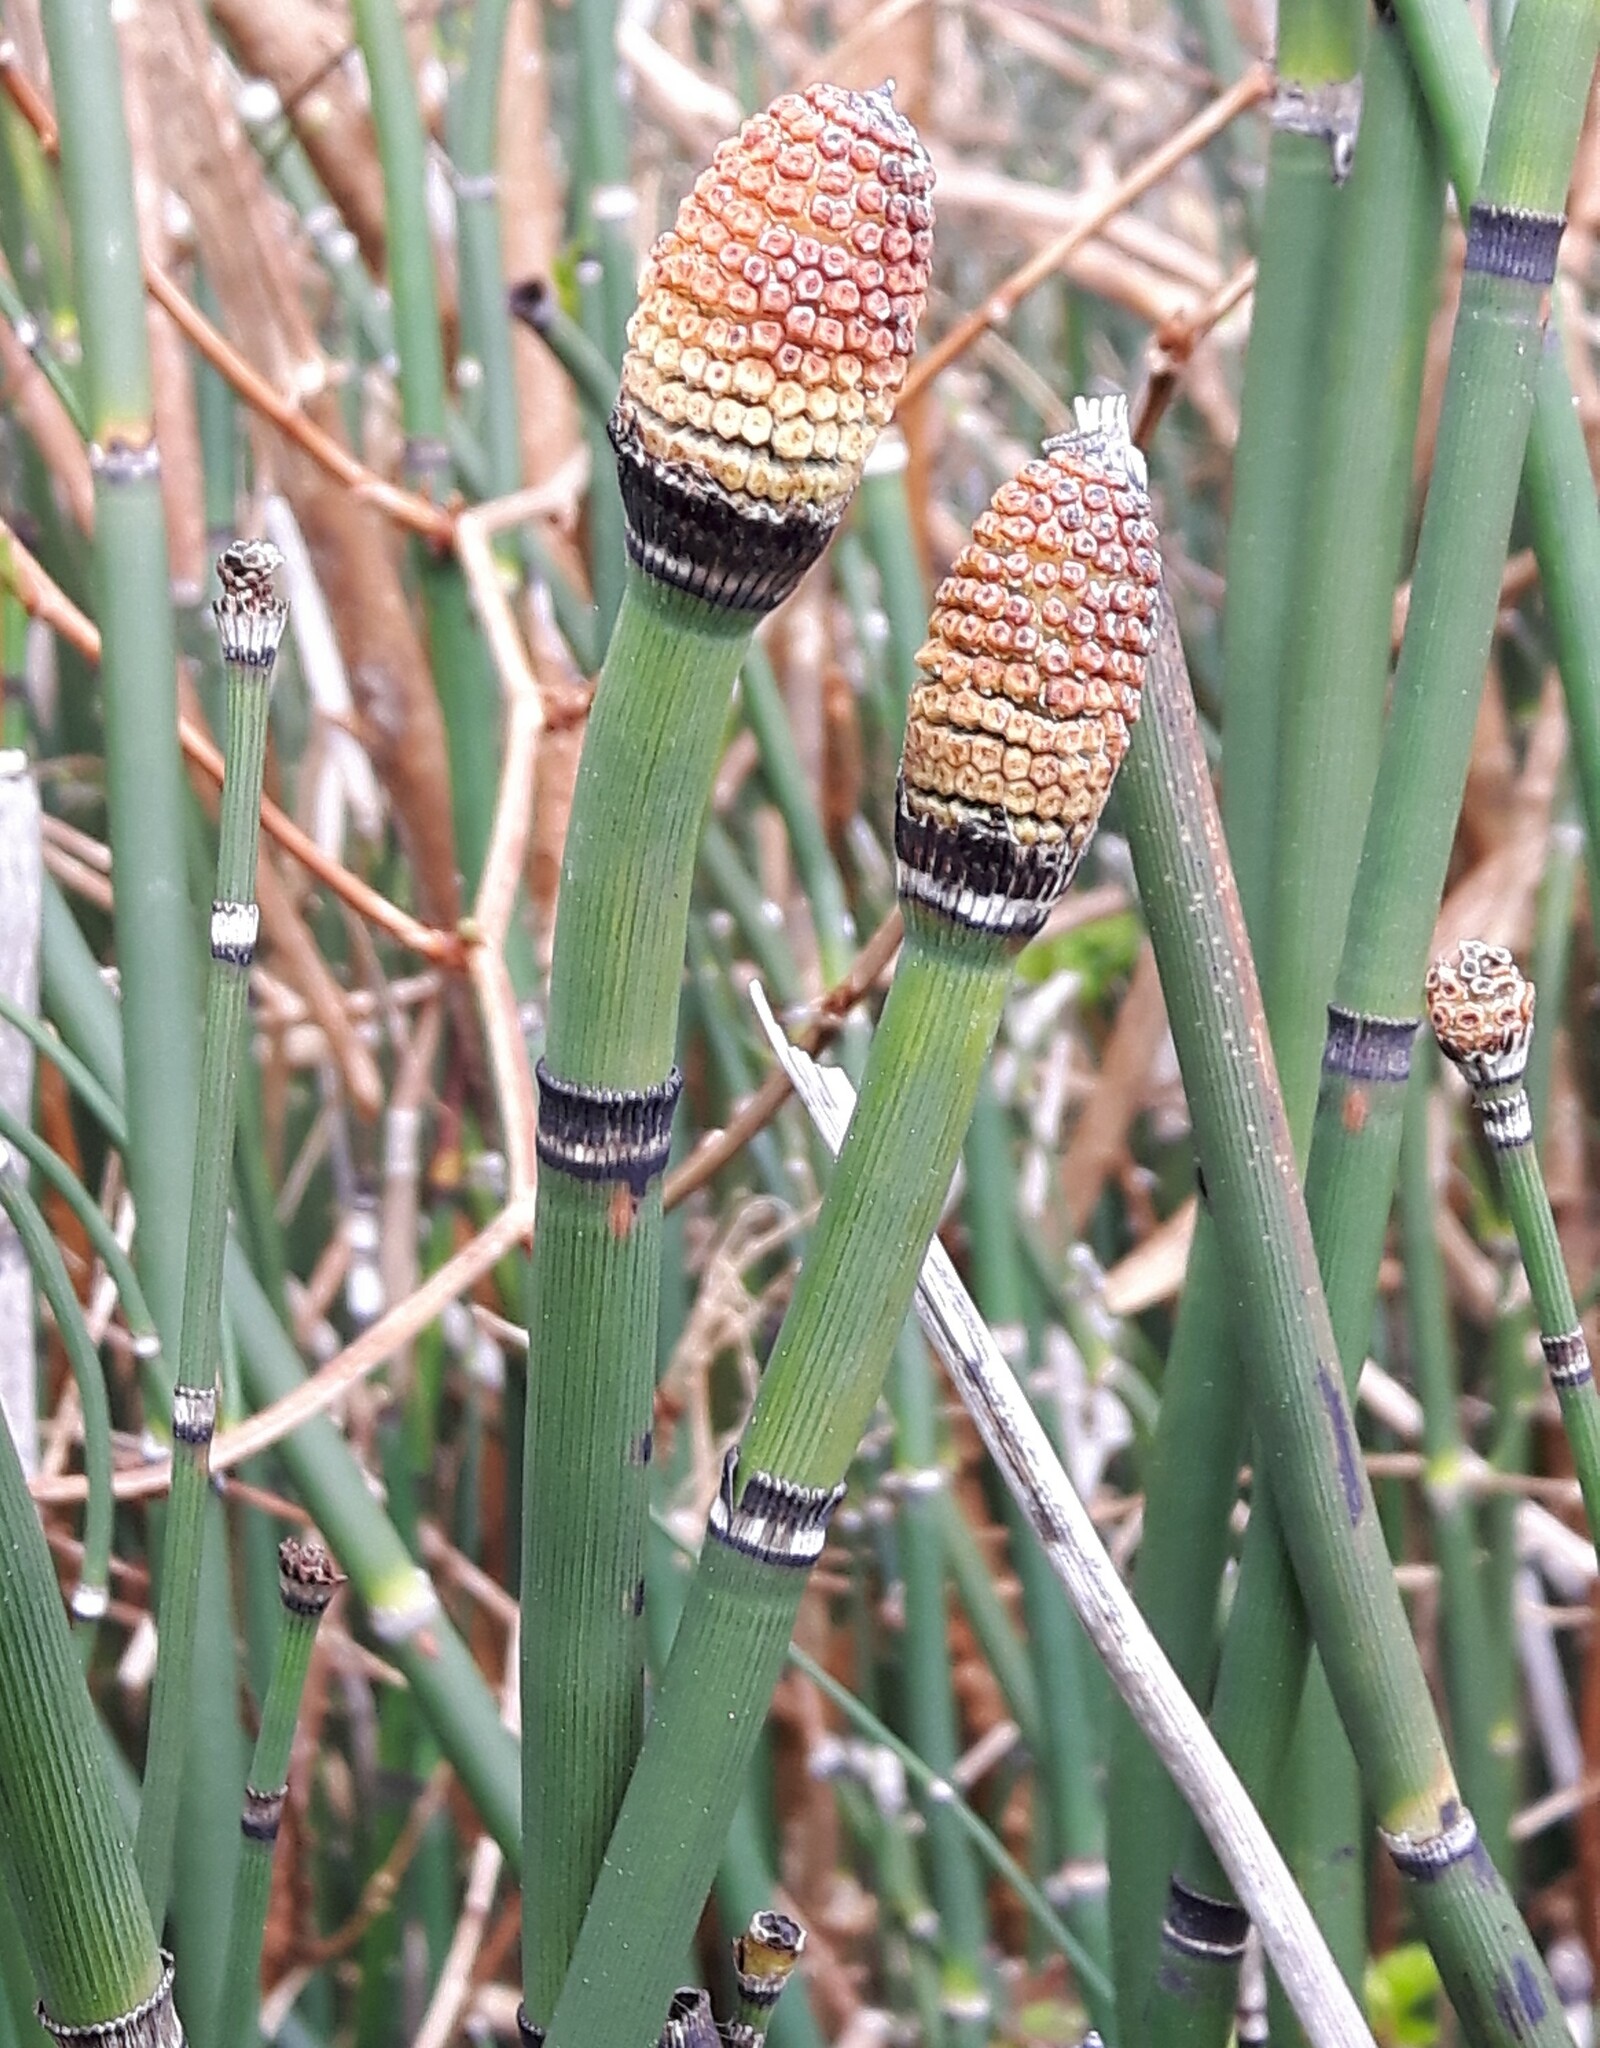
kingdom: Plantae
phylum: Tracheophyta
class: Polypodiopsida
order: Equisetales
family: Equisetaceae
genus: Equisetum
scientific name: Equisetum hyemale
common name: Rough horsetail
